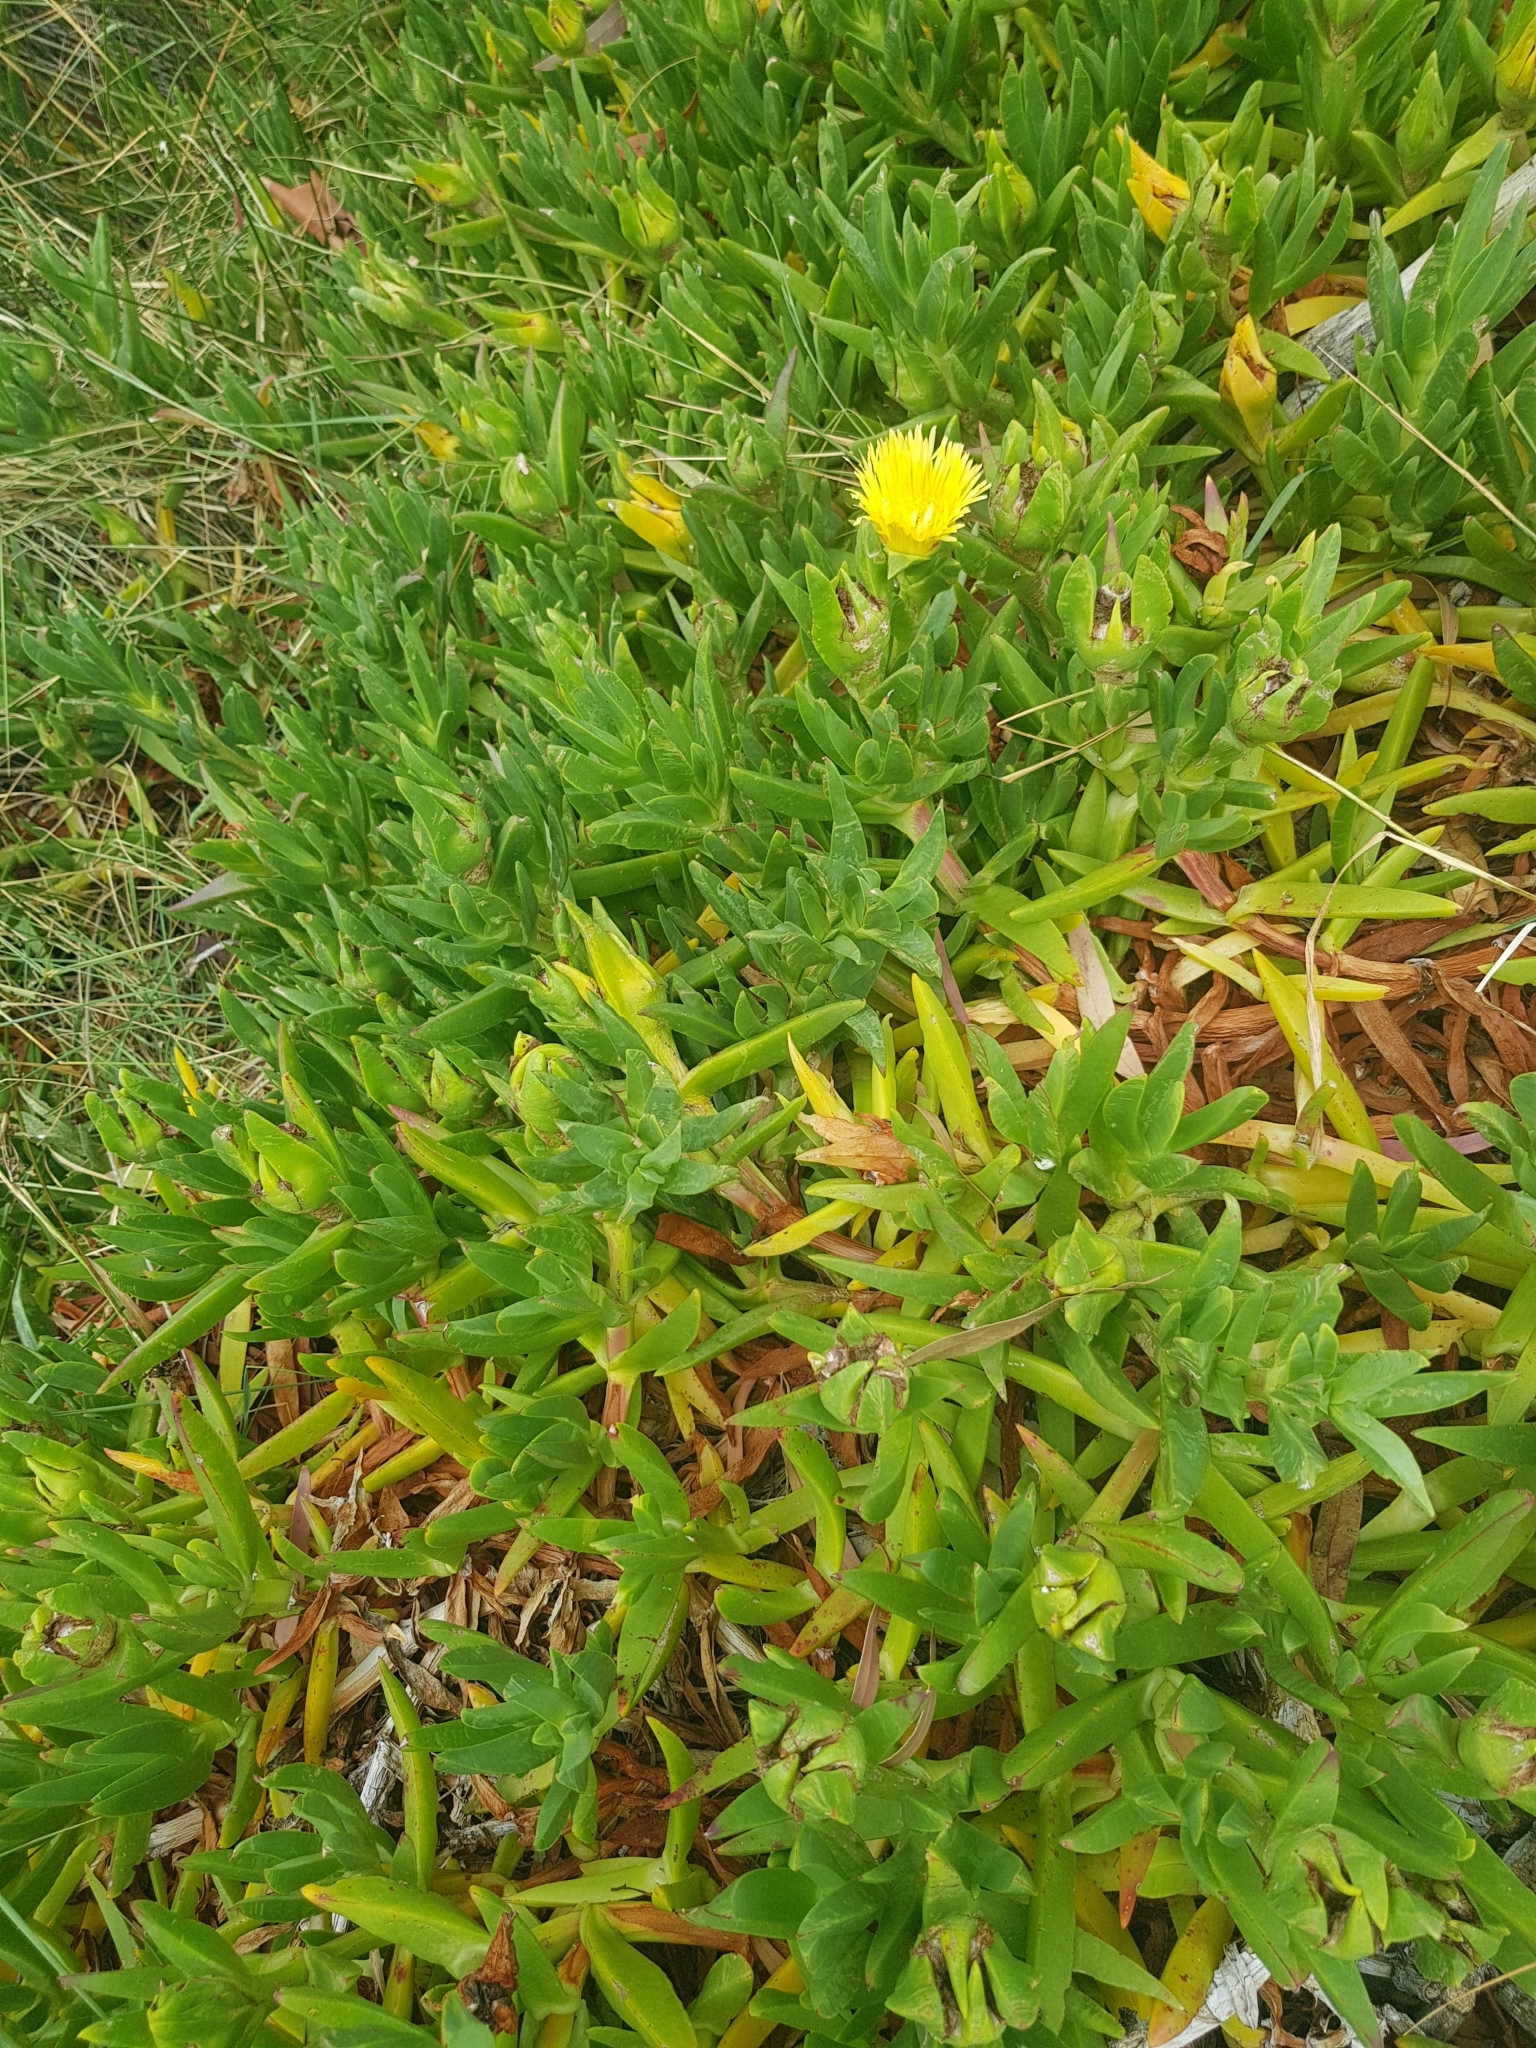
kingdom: Plantae
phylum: Tracheophyta
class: Magnoliopsida
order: Caryophyllales
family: Aizoaceae
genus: Carpobrotus
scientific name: Carpobrotus edulis
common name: Hottentot-fig
